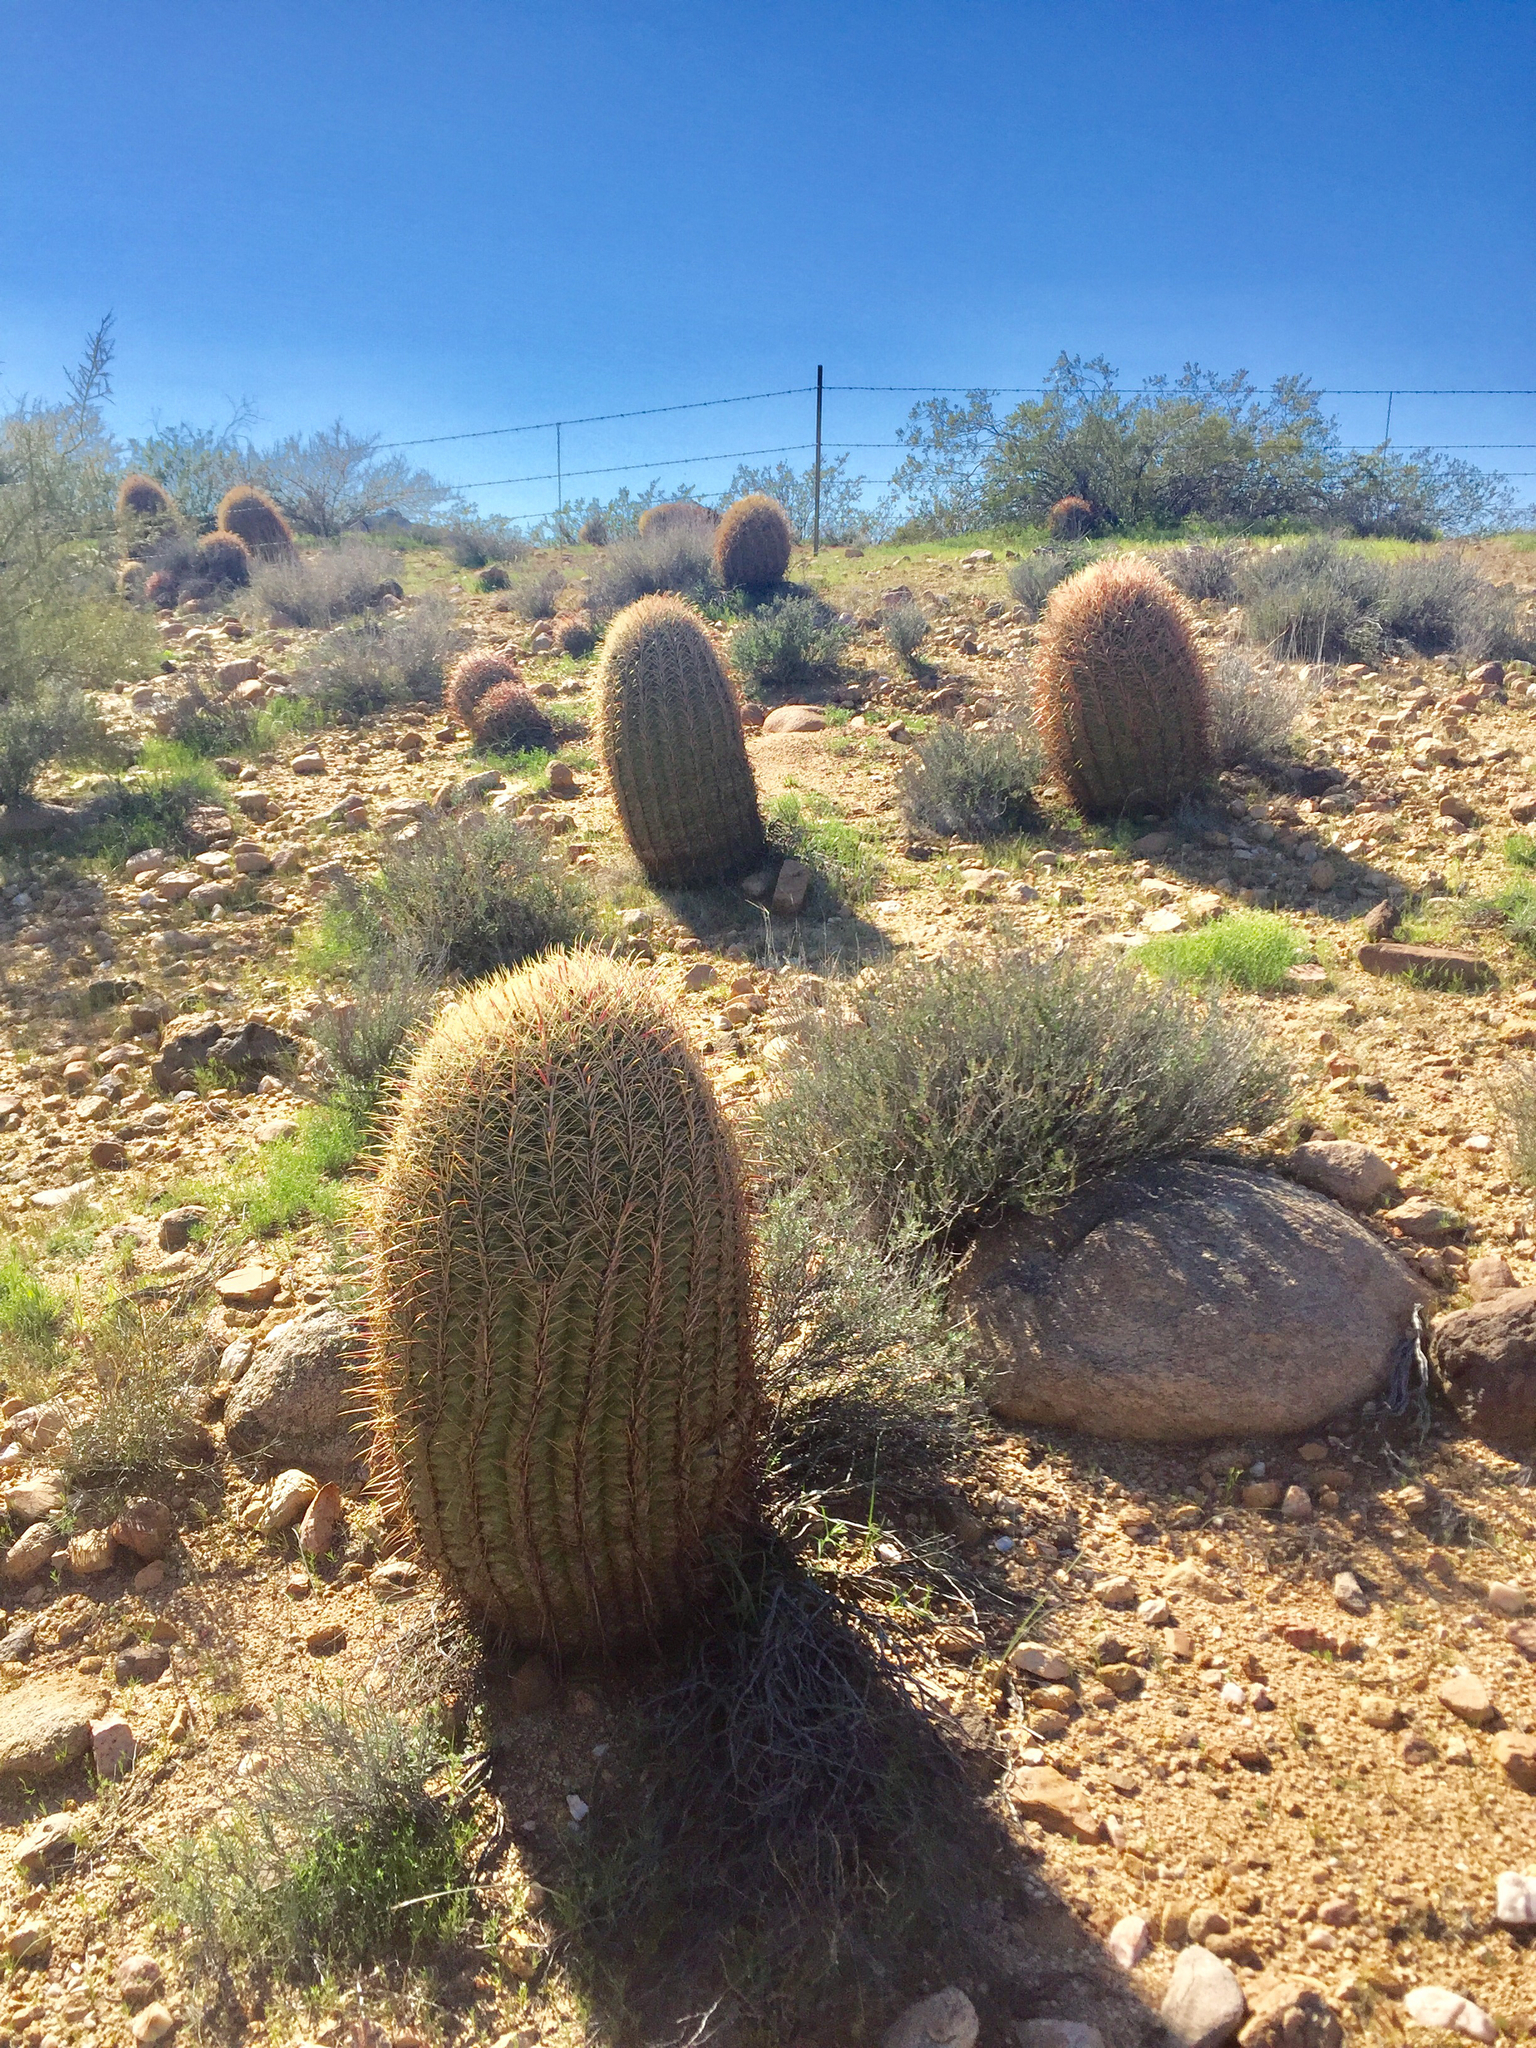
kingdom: Plantae
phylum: Tracheophyta
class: Magnoliopsida
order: Caryophyllales
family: Cactaceae
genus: Ferocactus
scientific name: Ferocactus cylindraceus
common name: California barrel cactus
